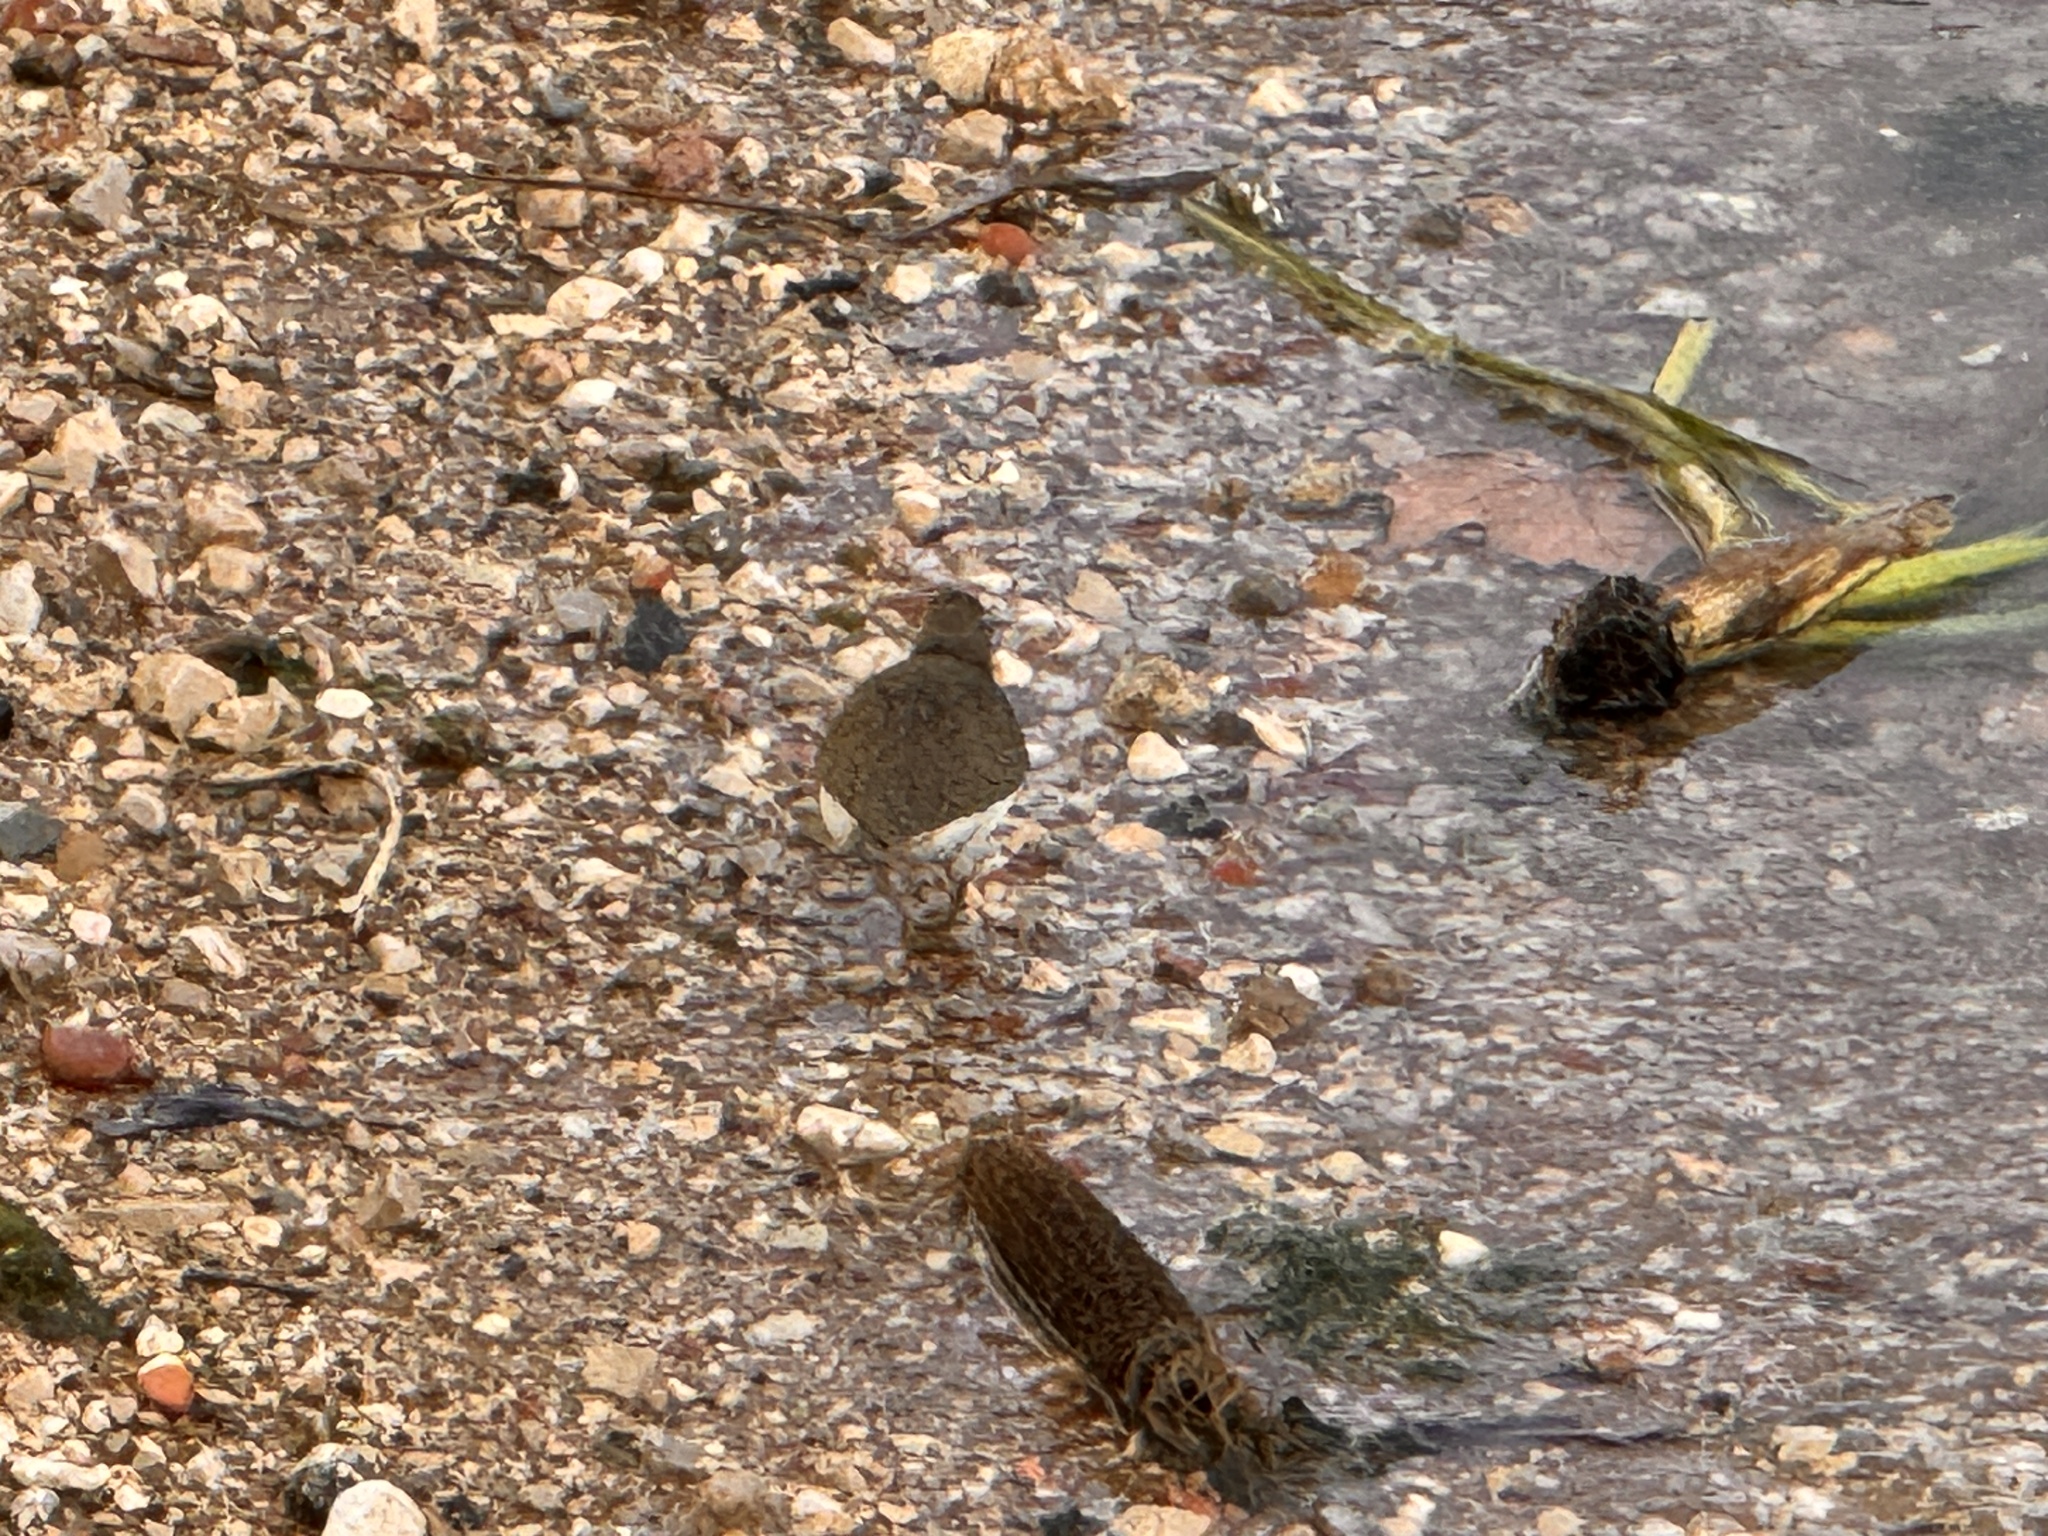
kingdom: Animalia
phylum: Chordata
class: Aves
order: Charadriiformes
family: Scolopacidae
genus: Actitis
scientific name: Actitis hypoleucos
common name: Common sandpiper
